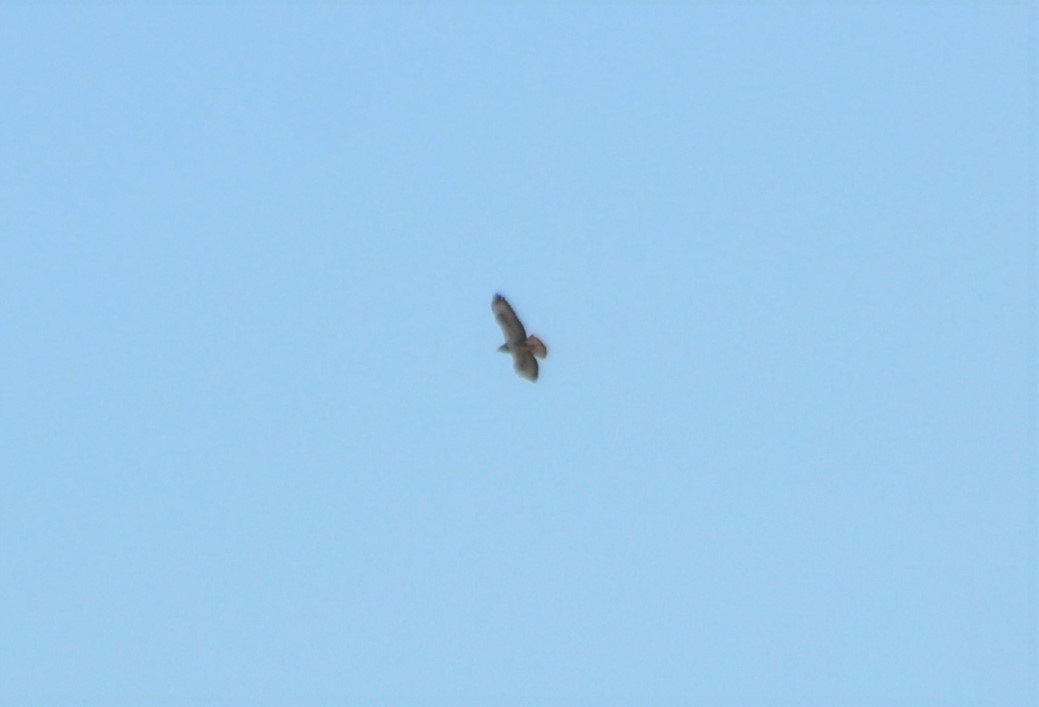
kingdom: Animalia
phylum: Chordata
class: Aves
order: Accipitriformes
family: Accipitridae
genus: Buteo
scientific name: Buteo buteo
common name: Common buzzard
